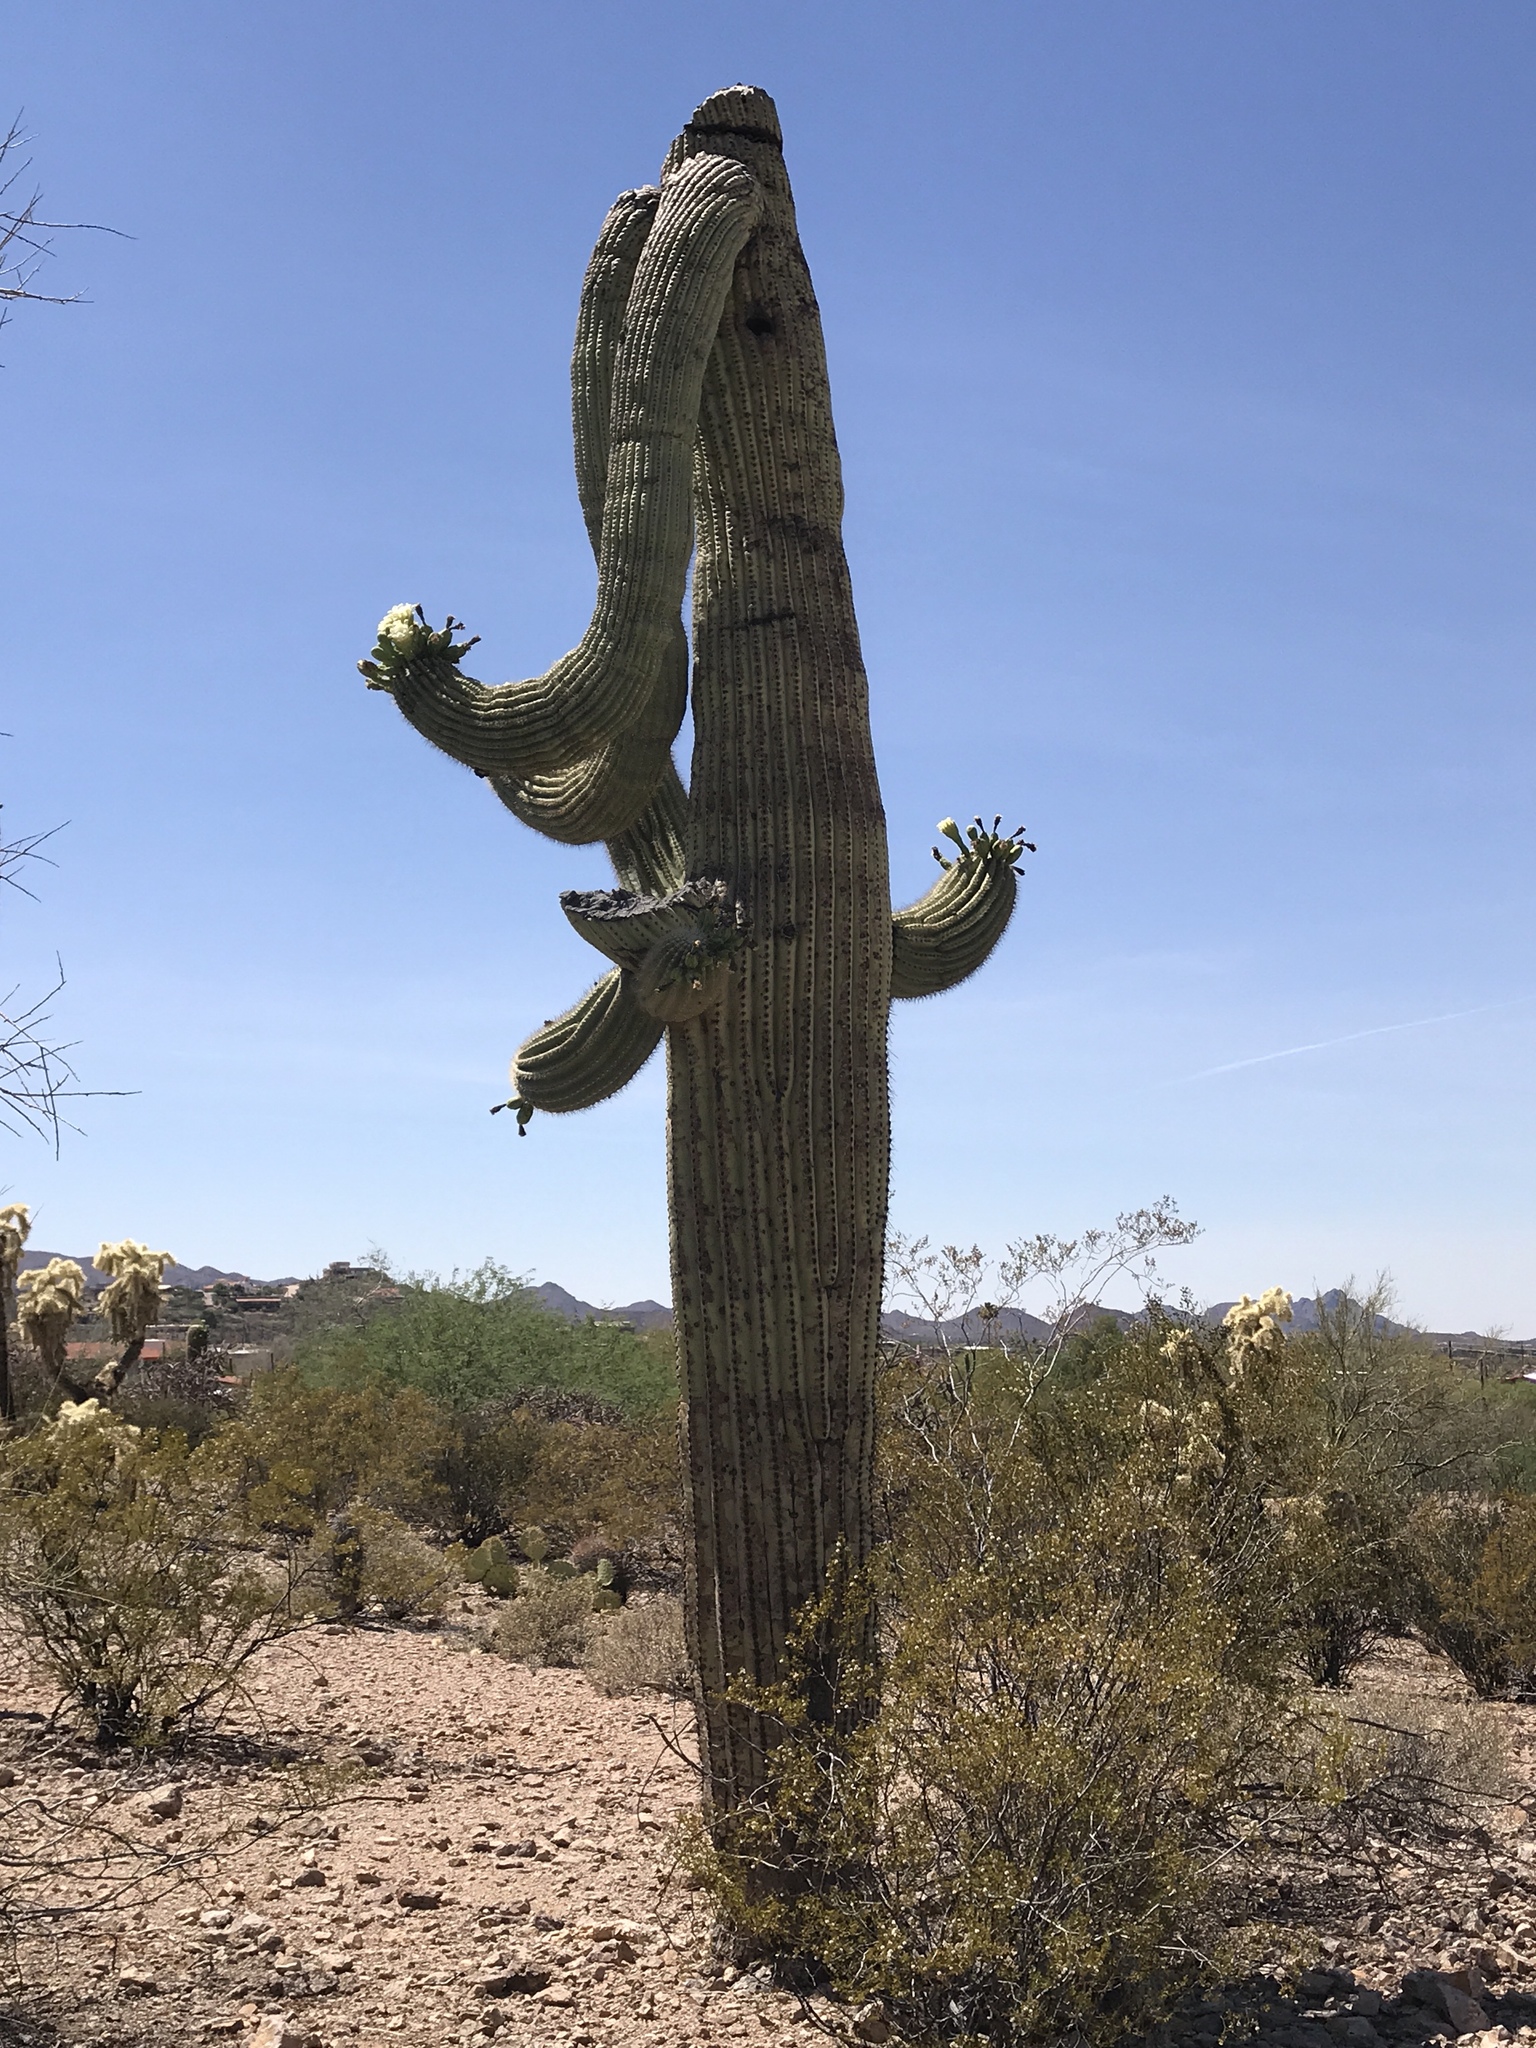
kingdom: Plantae
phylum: Tracheophyta
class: Magnoliopsida
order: Caryophyllales
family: Cactaceae
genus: Carnegiea
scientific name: Carnegiea gigantea
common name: Saguaro
